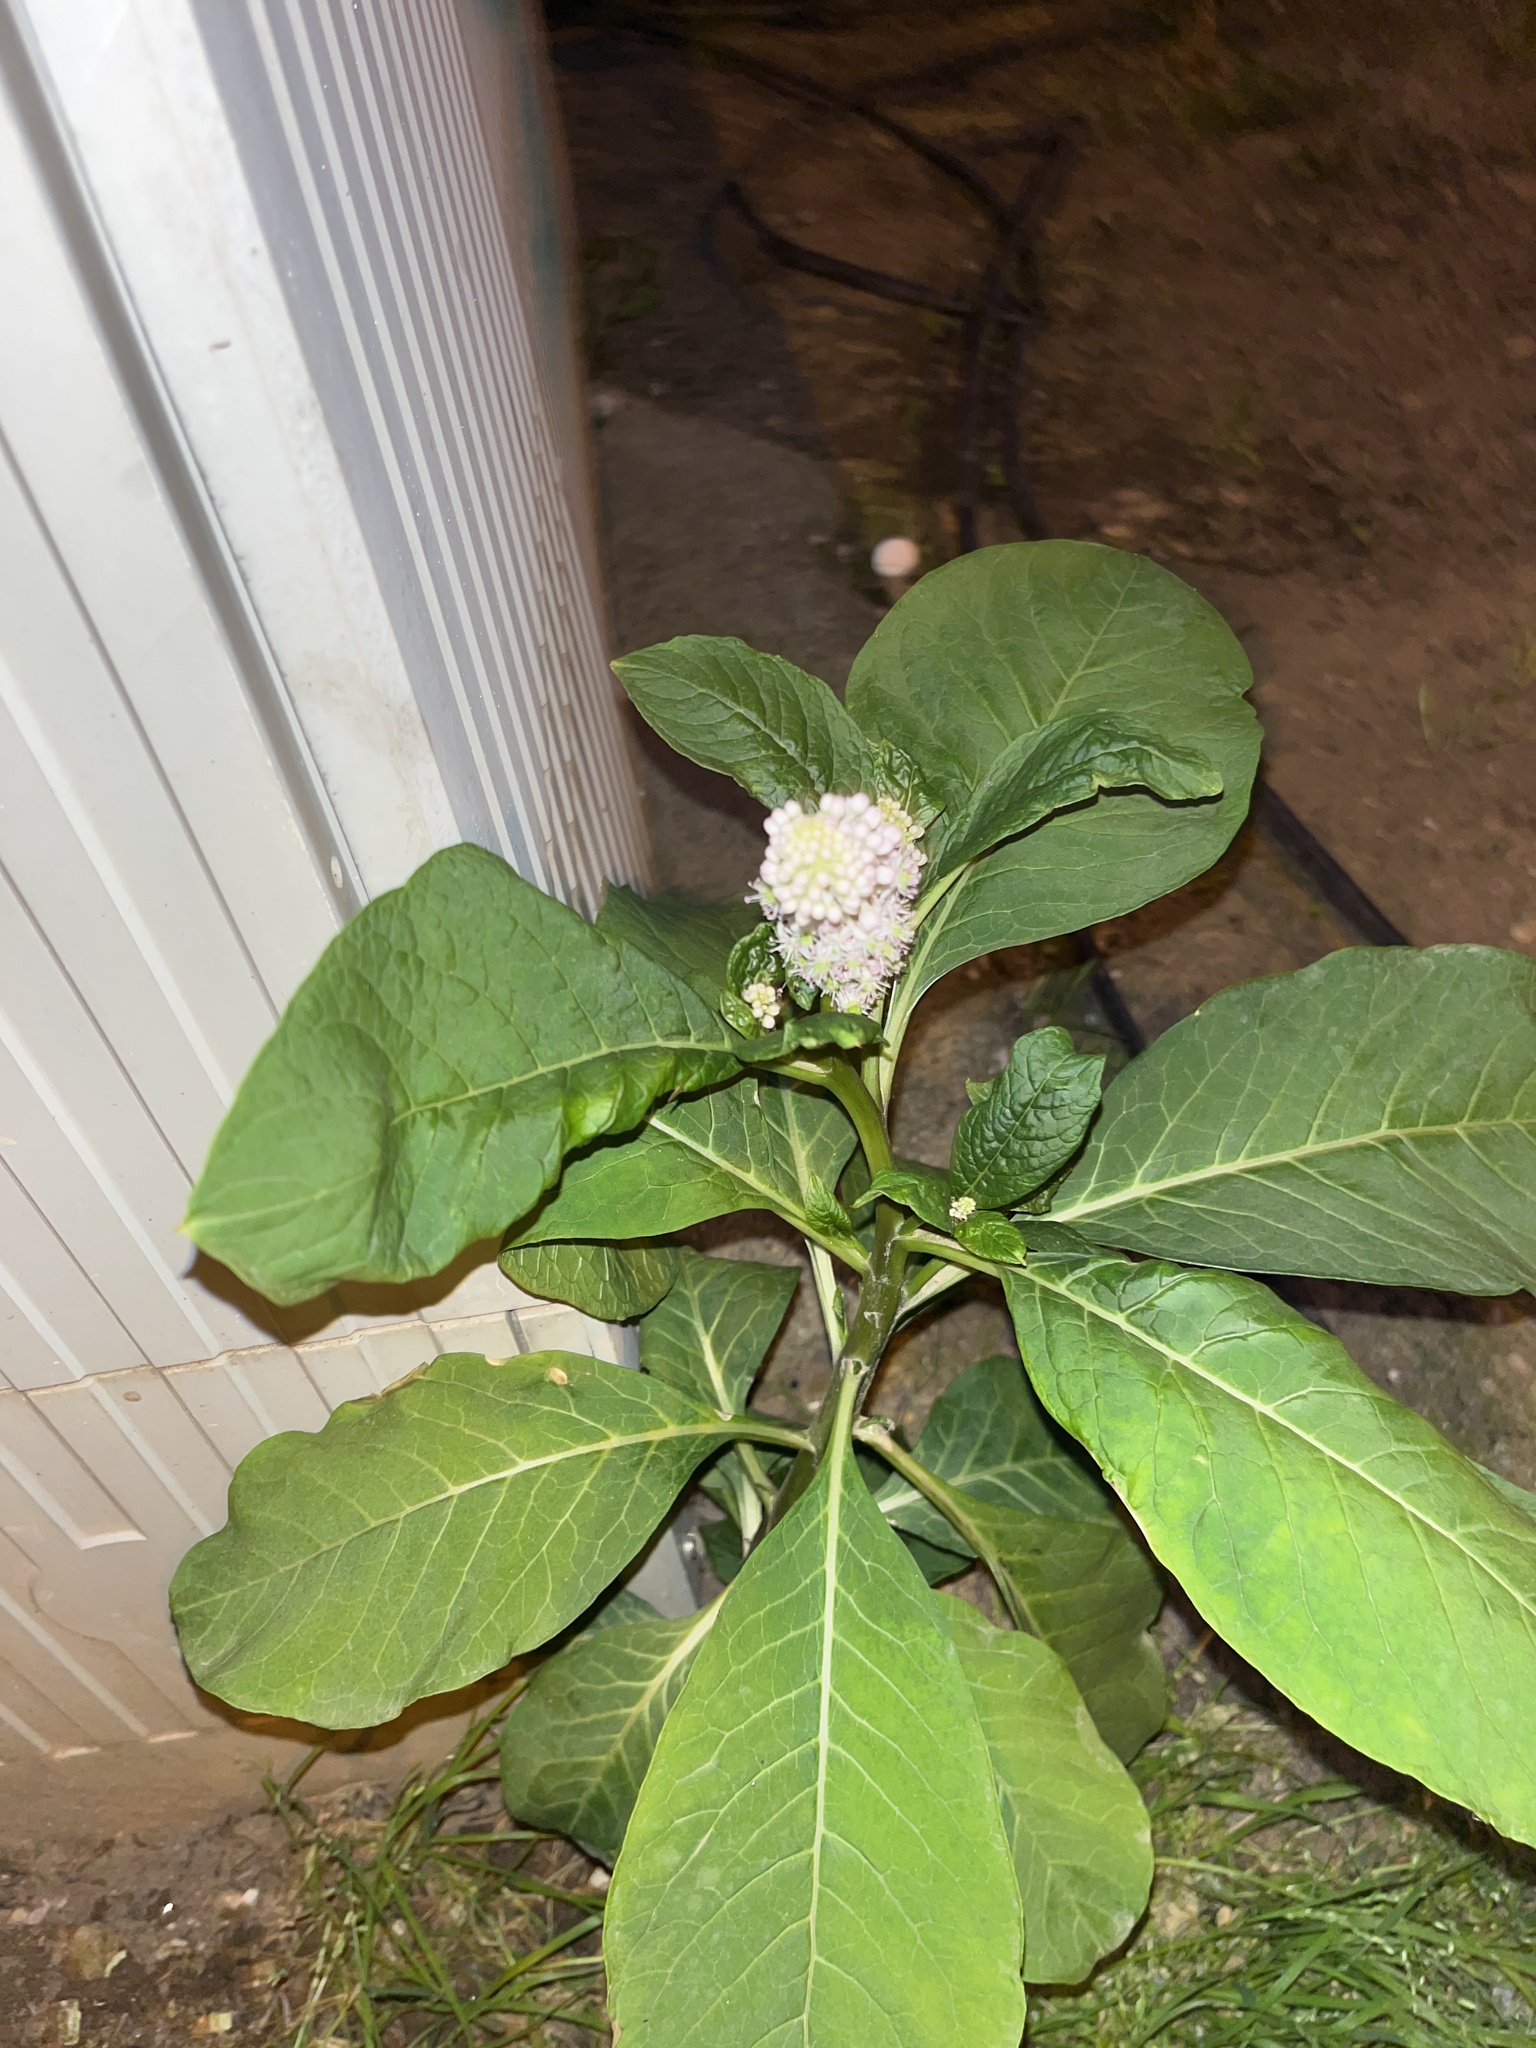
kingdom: Plantae
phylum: Tracheophyta
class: Magnoliopsida
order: Caryophyllales
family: Phytolaccaceae
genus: Phytolacca
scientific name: Phytolacca acinosa
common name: Indian pokeweed
